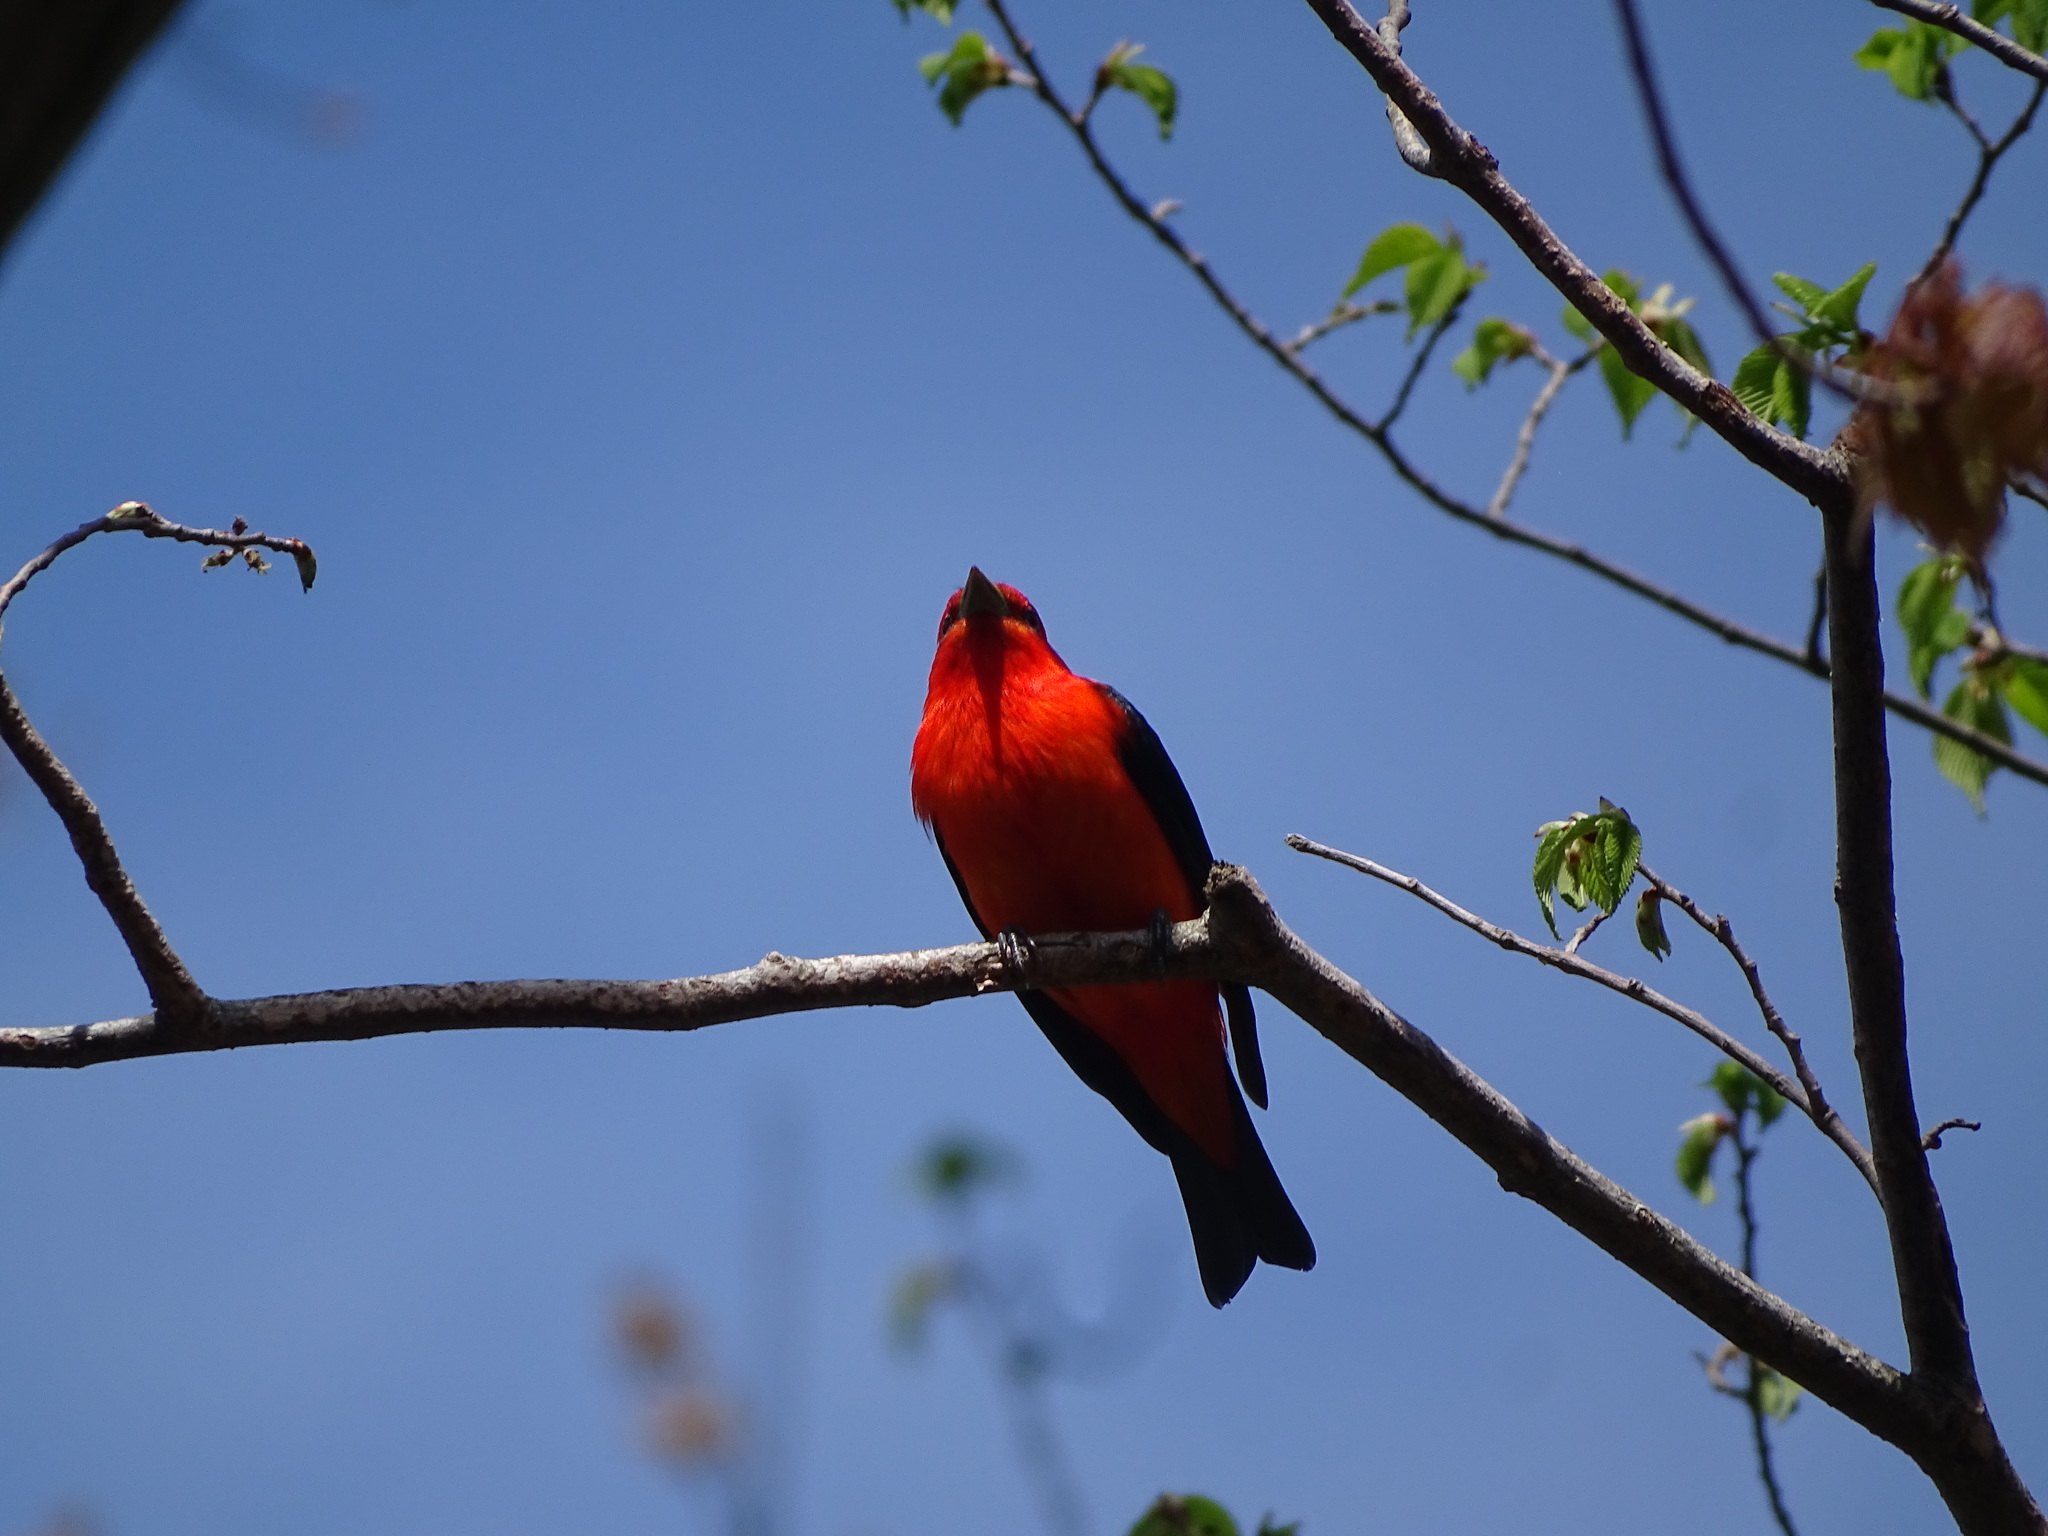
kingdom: Animalia
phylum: Chordata
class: Aves
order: Passeriformes
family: Cardinalidae
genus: Piranga
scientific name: Piranga olivacea
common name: Scarlet tanager
